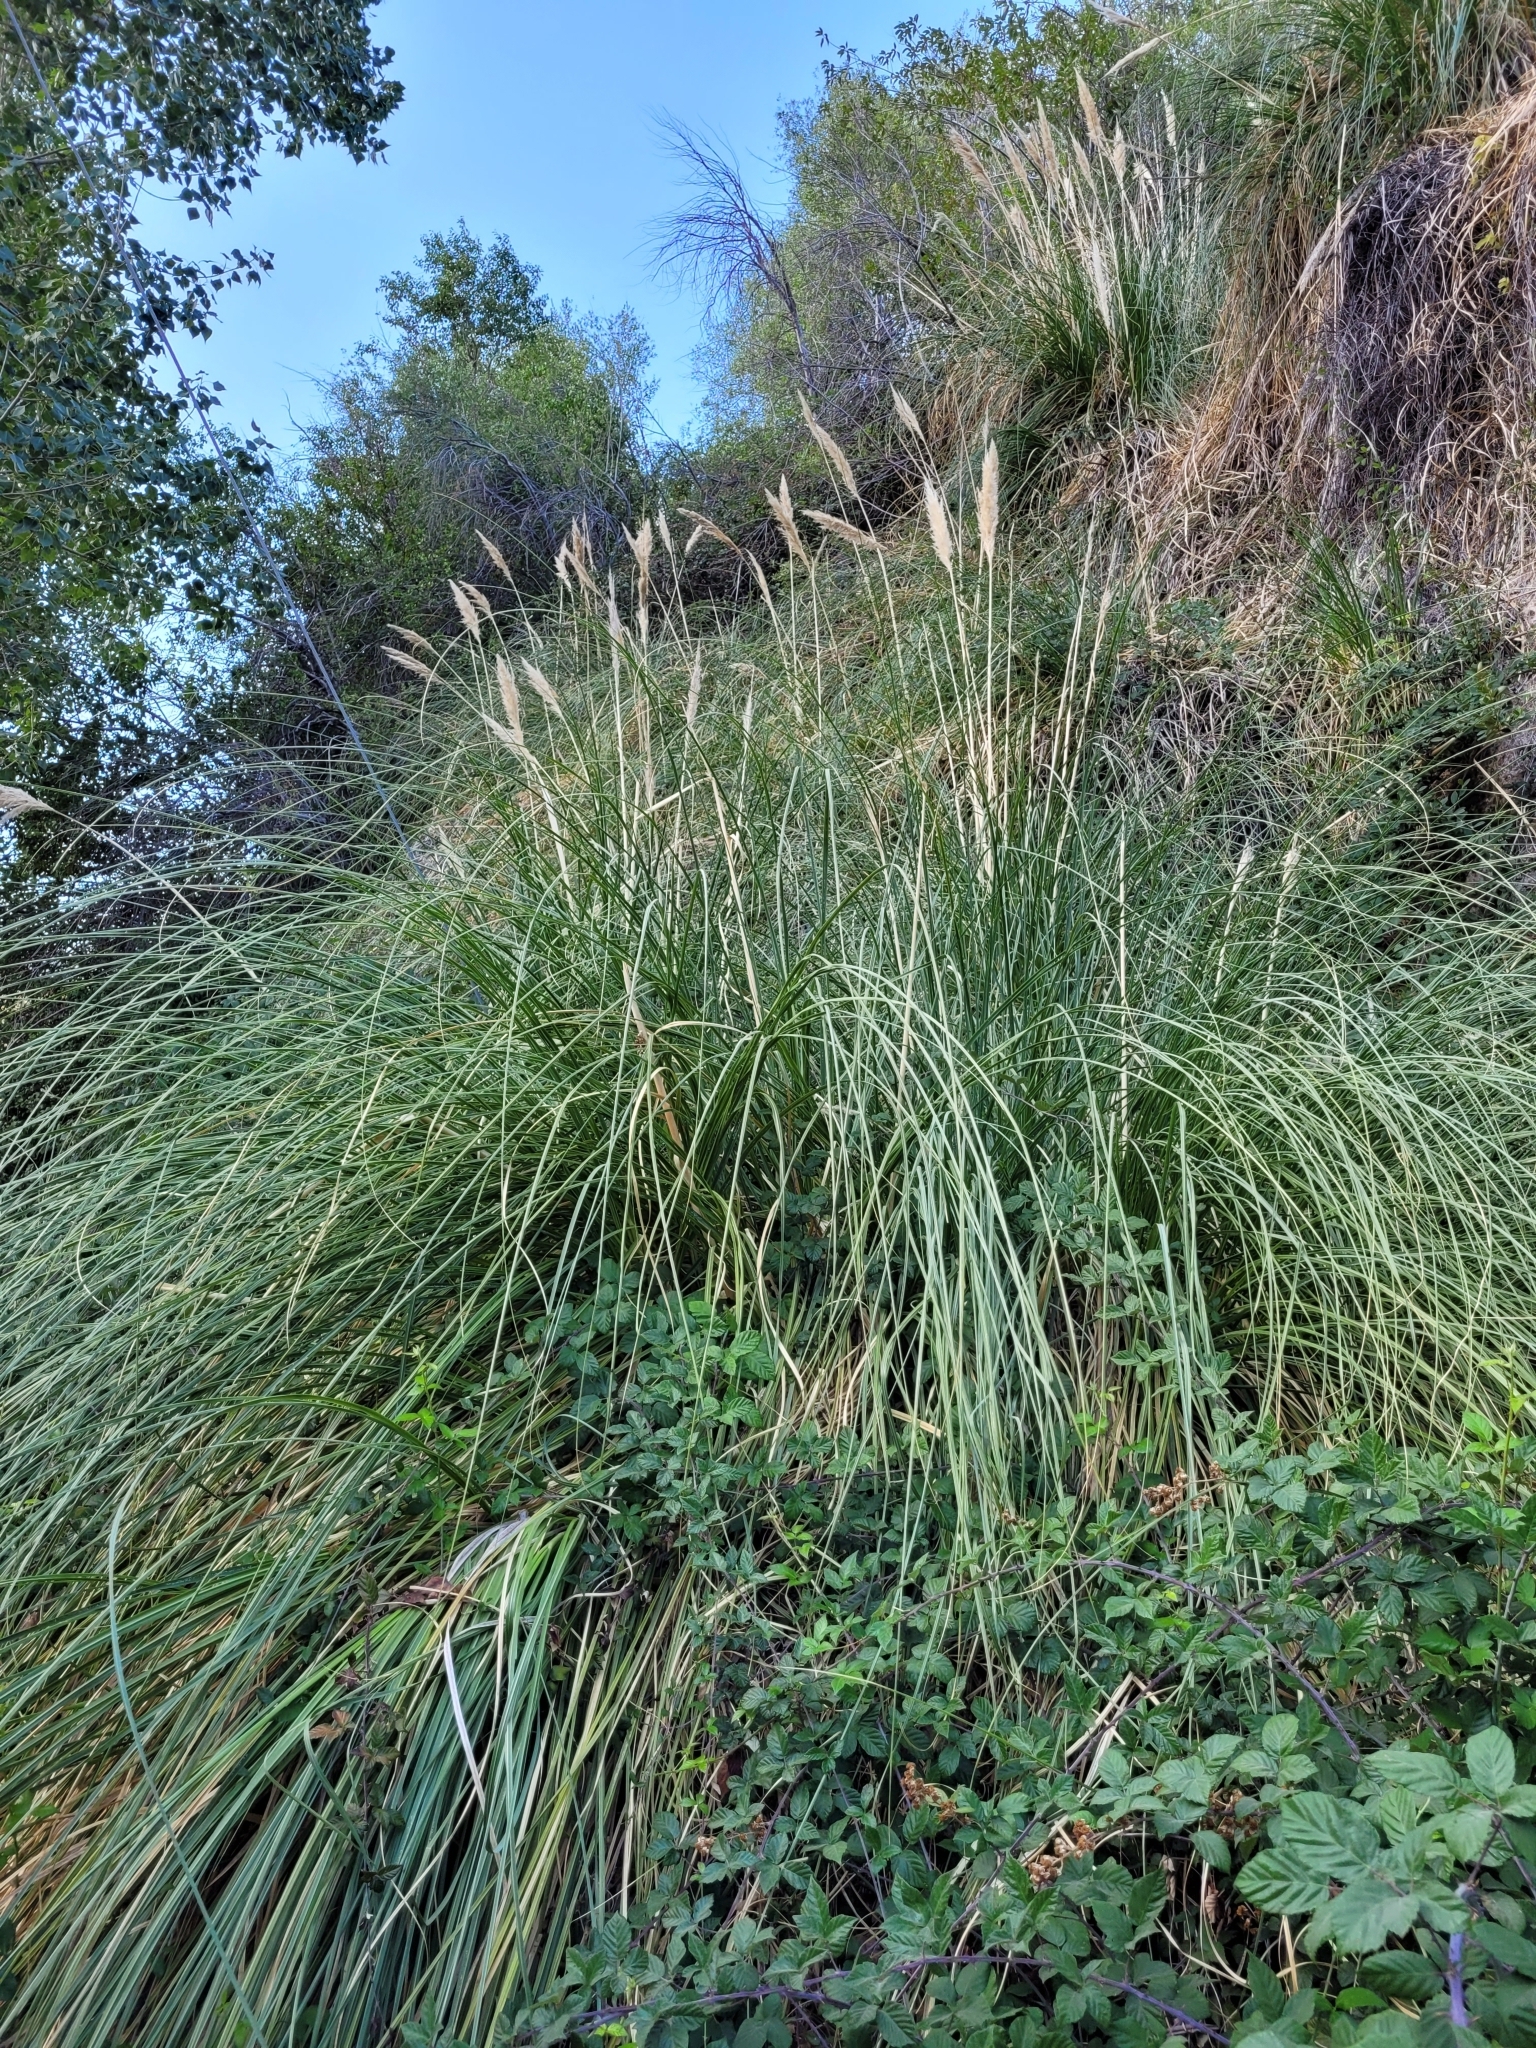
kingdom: Plantae
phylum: Tracheophyta
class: Liliopsida
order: Poales
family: Poaceae
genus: Cortaderia
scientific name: Cortaderia selloana
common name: Uruguayan pampas grass
